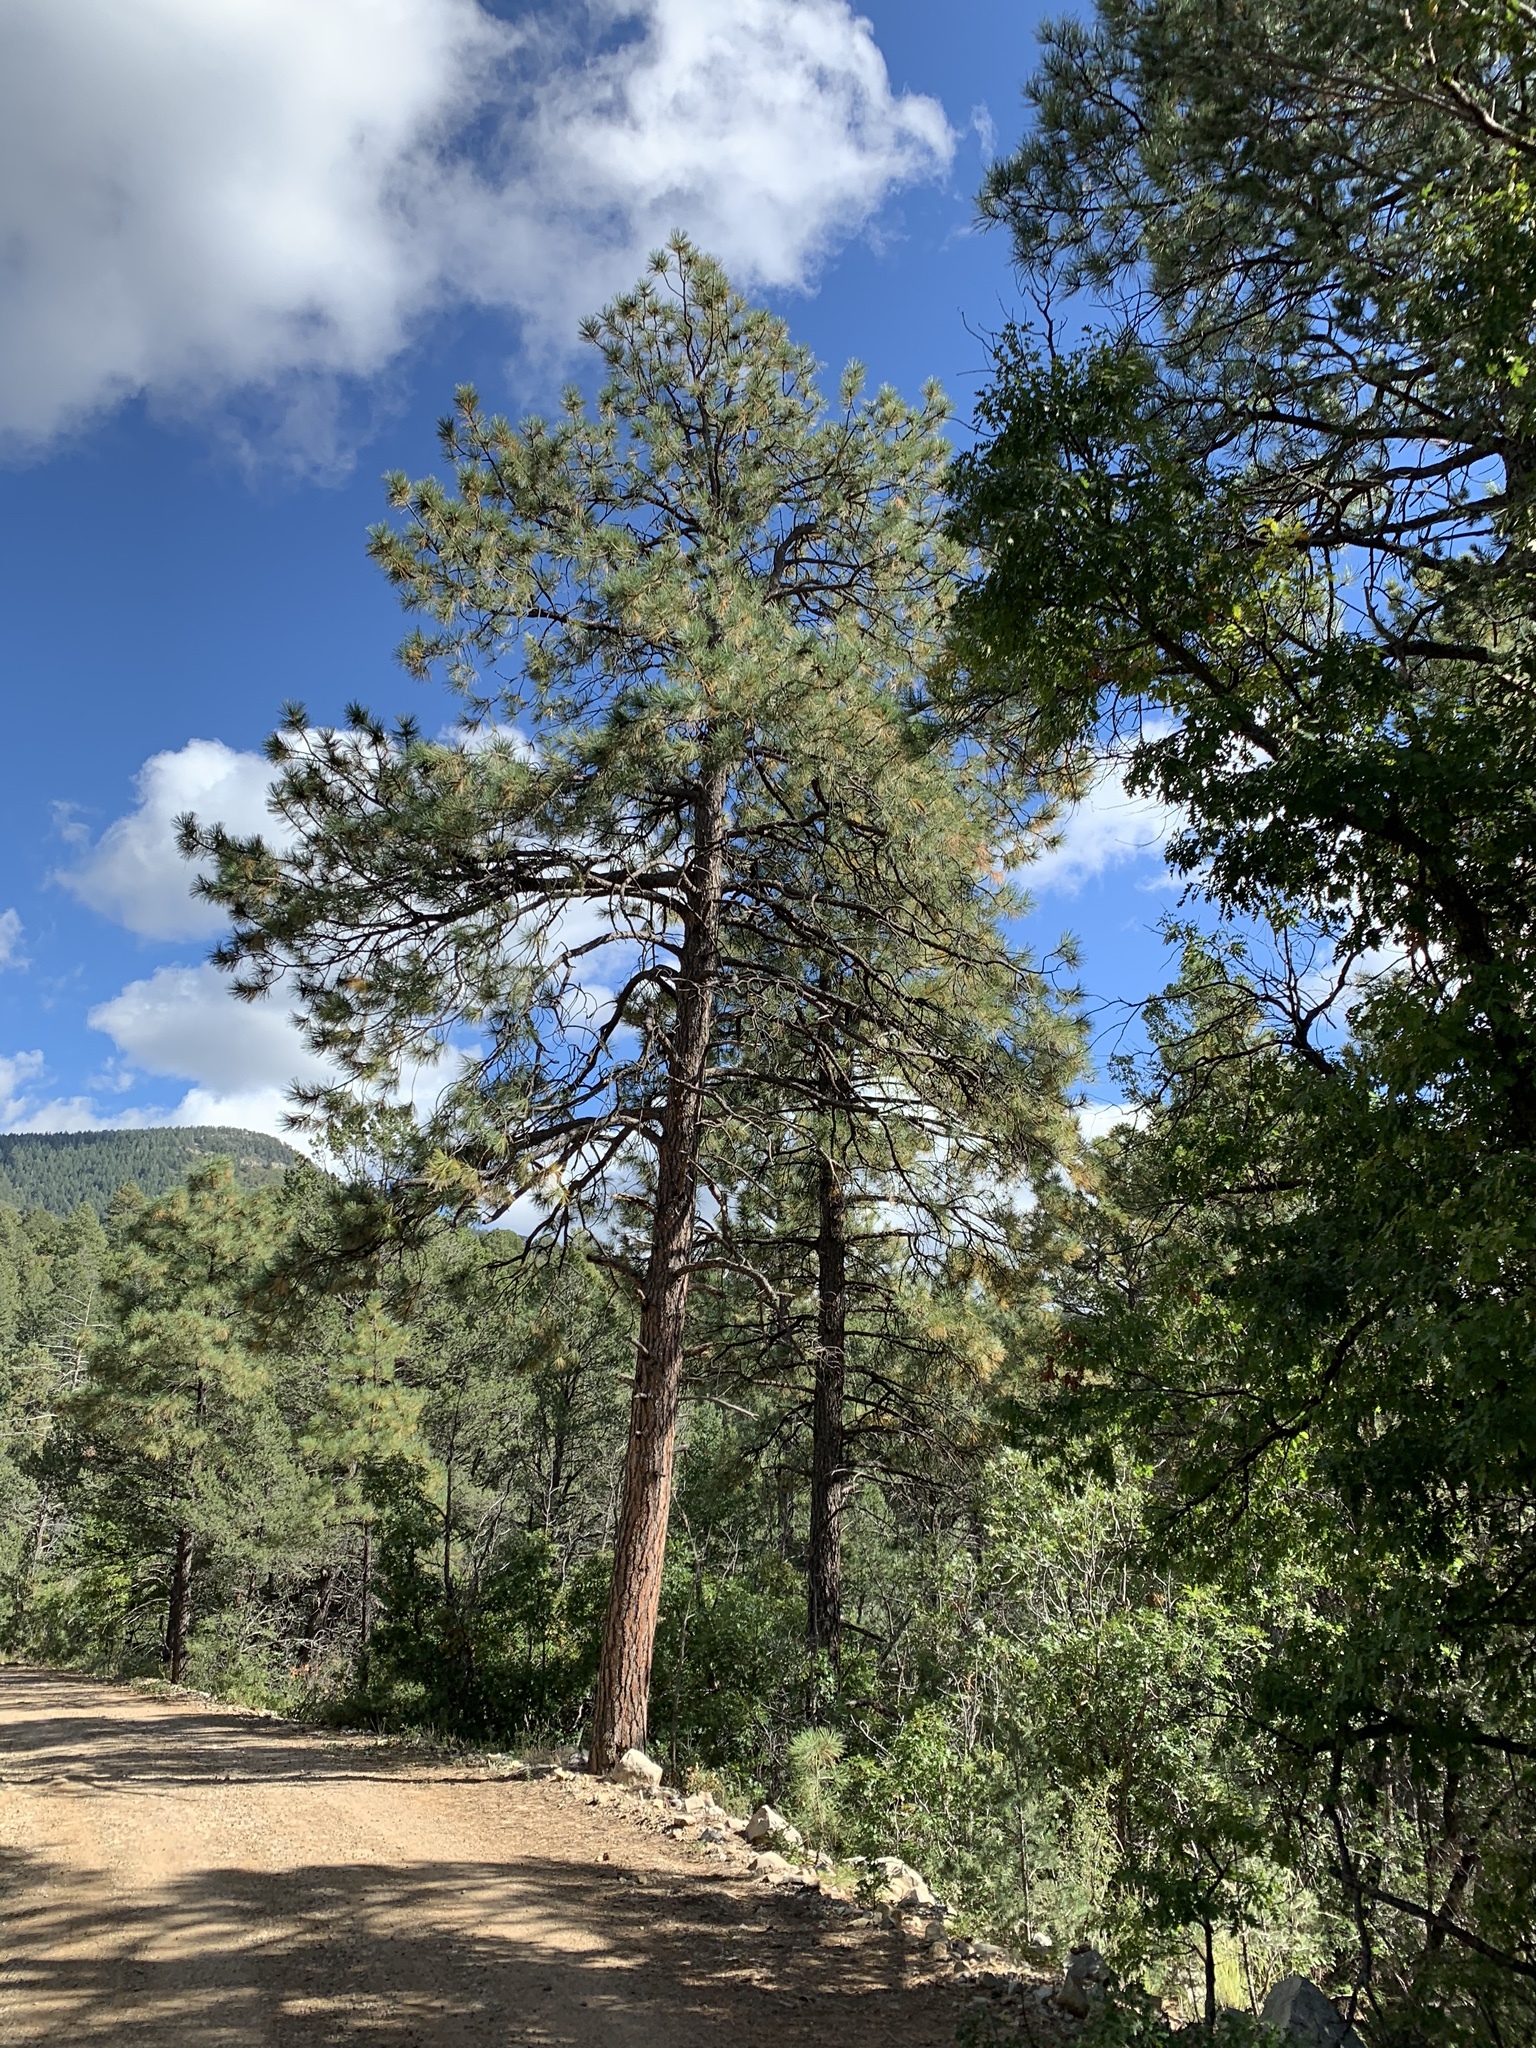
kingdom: Plantae
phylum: Tracheophyta
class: Pinopsida
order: Pinales
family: Pinaceae
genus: Pinus
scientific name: Pinus ponderosa
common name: Western yellow-pine
